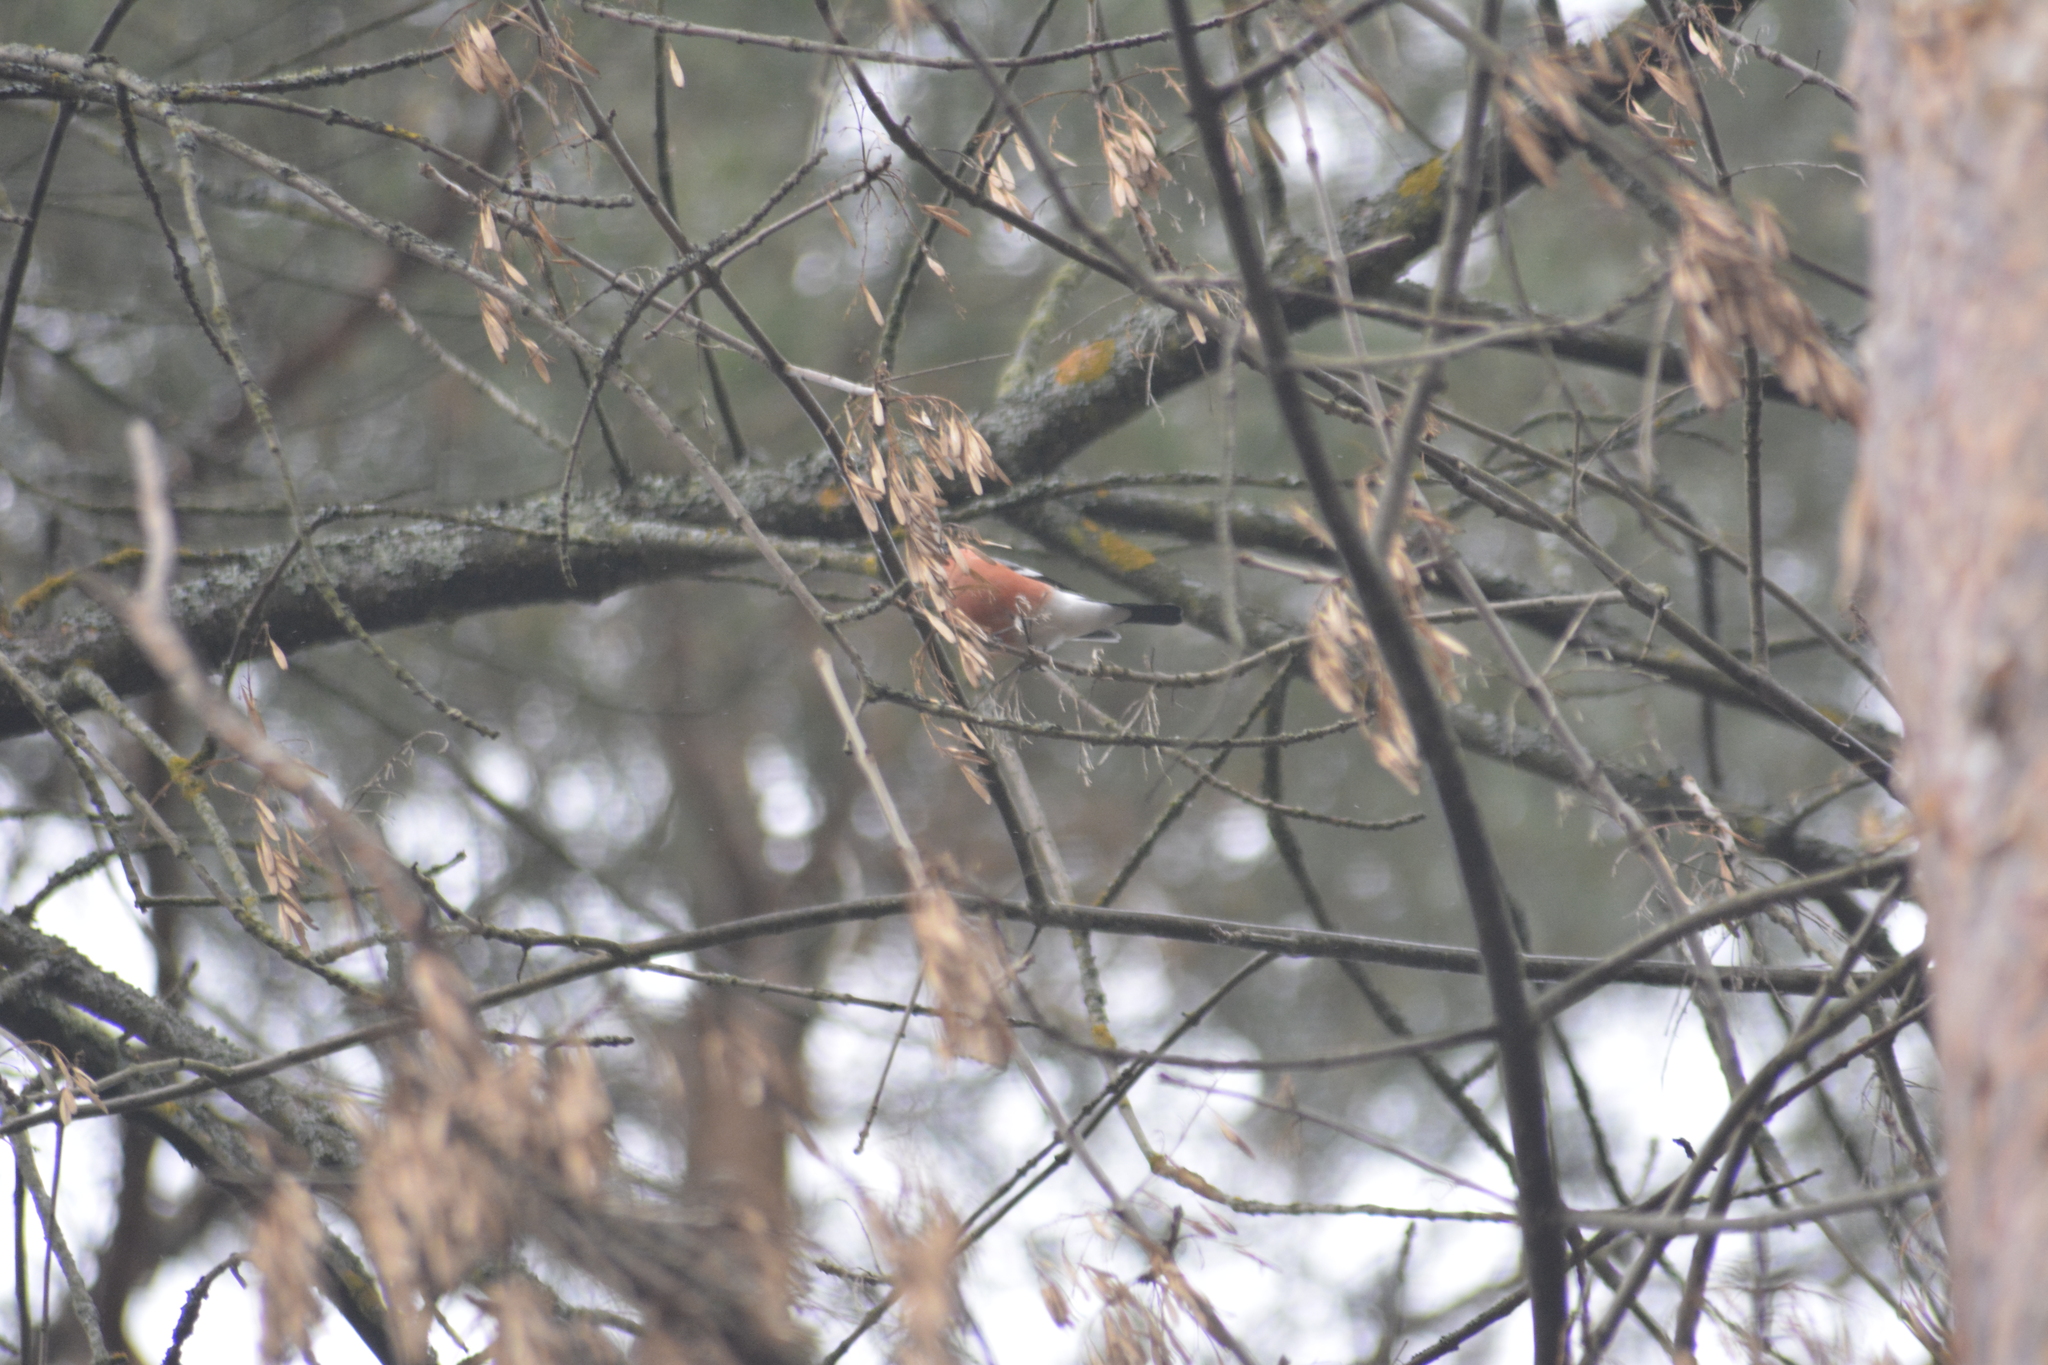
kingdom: Animalia
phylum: Chordata
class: Aves
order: Passeriformes
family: Fringillidae
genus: Pyrrhula
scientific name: Pyrrhula pyrrhula
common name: Eurasian bullfinch
